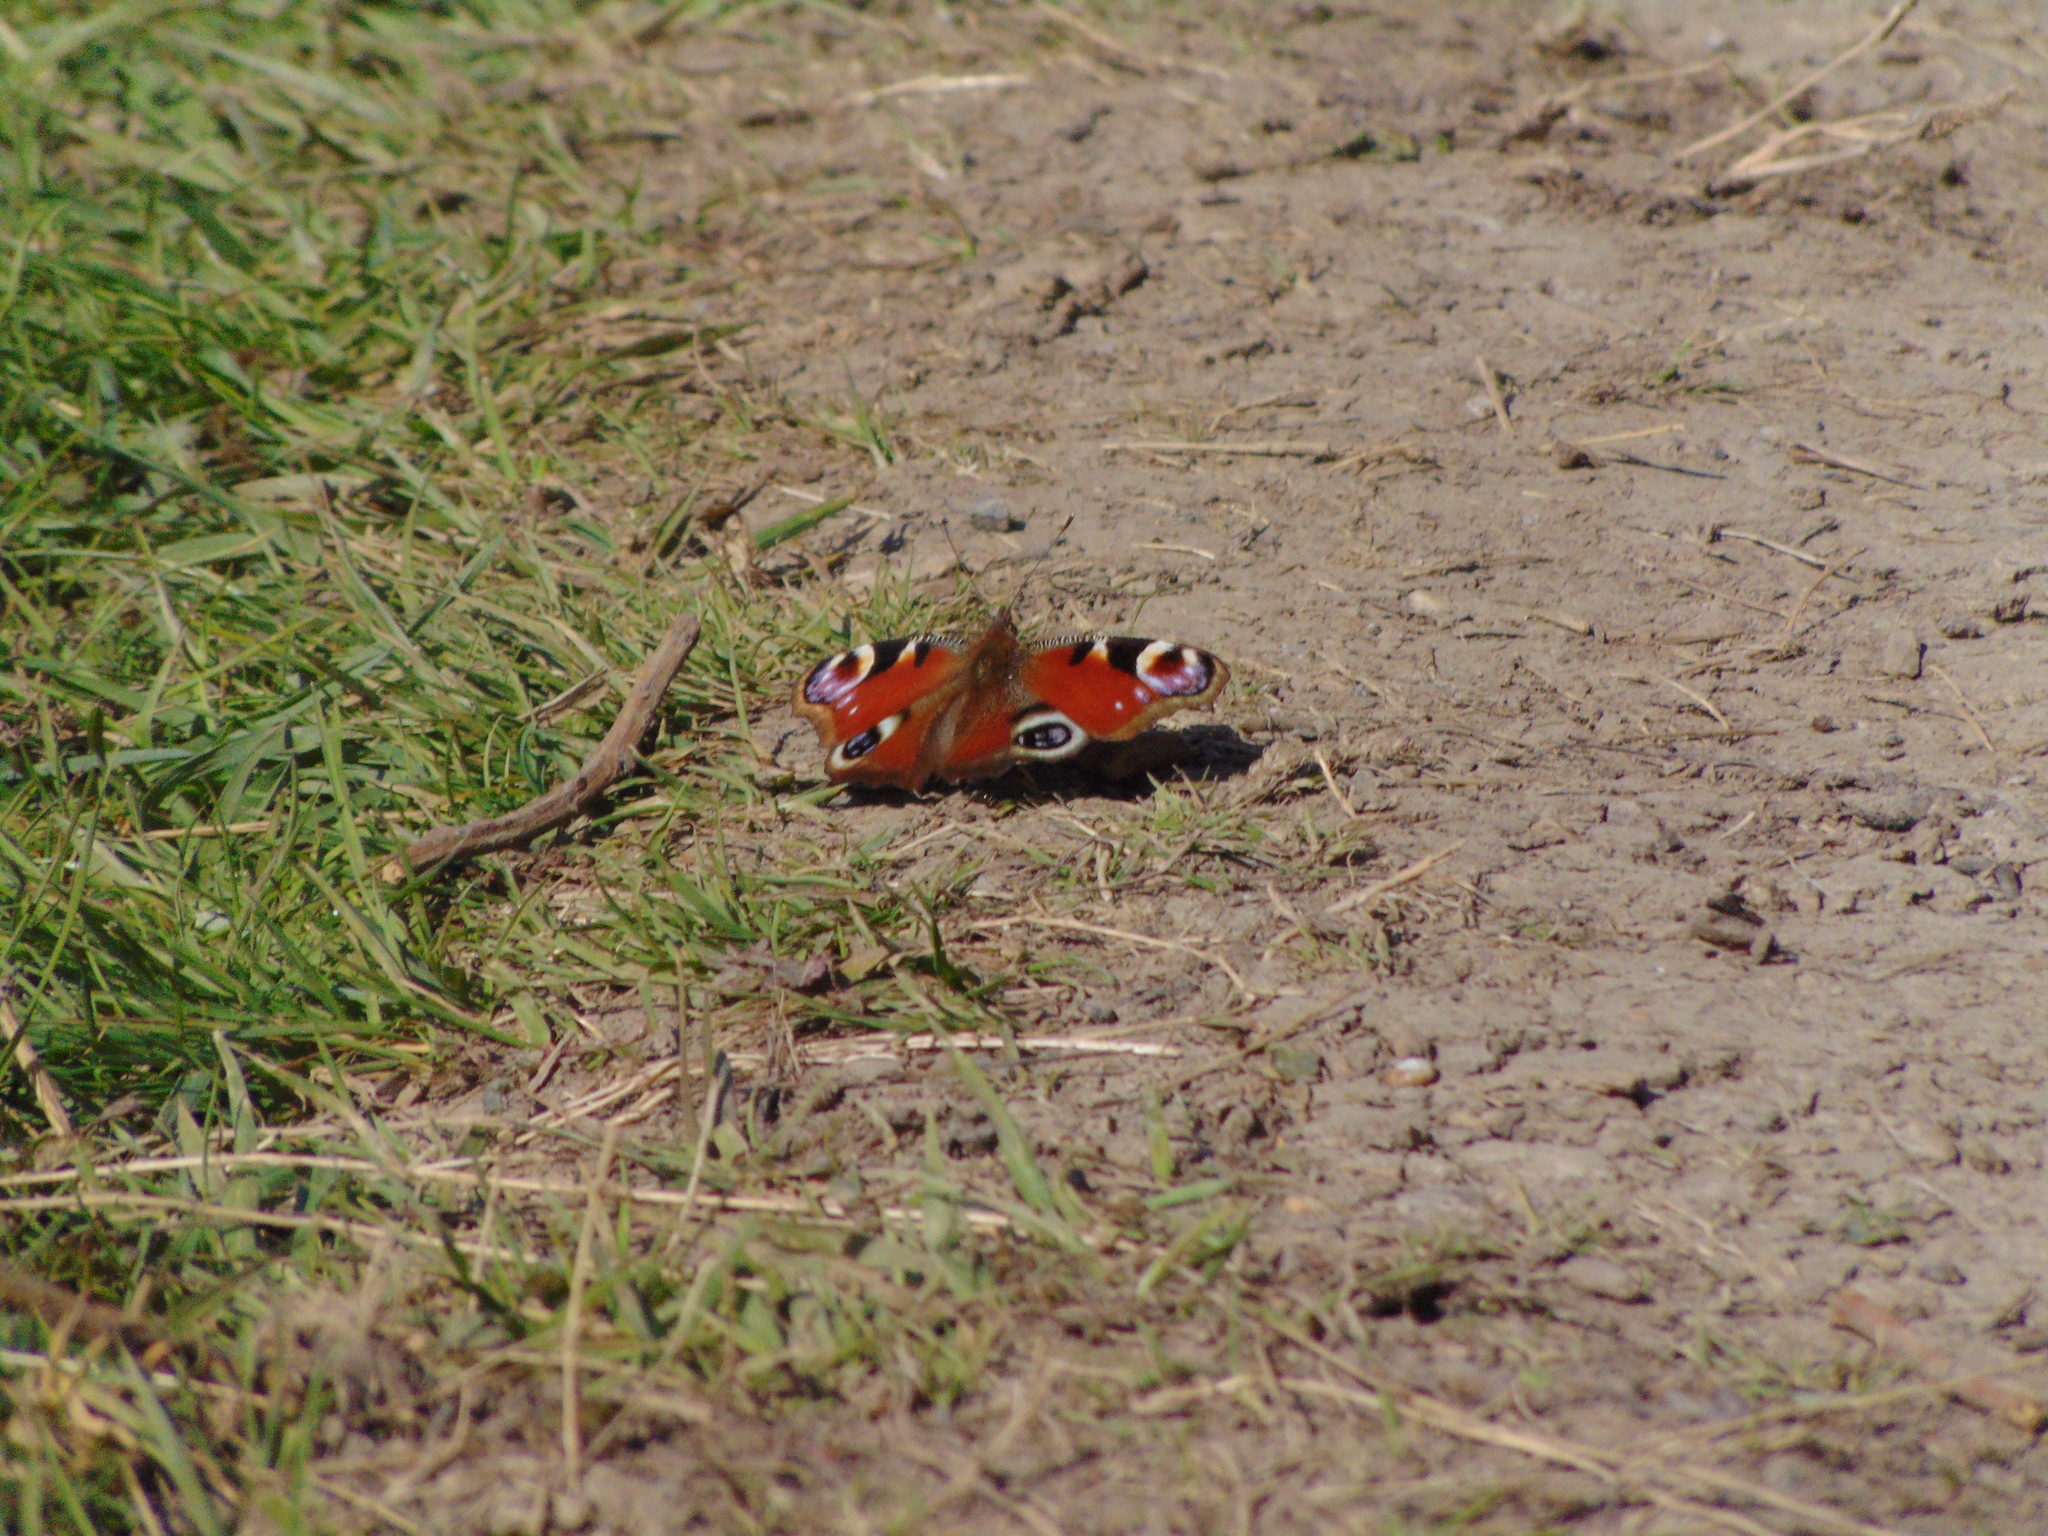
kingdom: Animalia
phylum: Arthropoda
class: Insecta
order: Lepidoptera
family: Nymphalidae
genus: Aglais
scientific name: Aglais io
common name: Peacock
